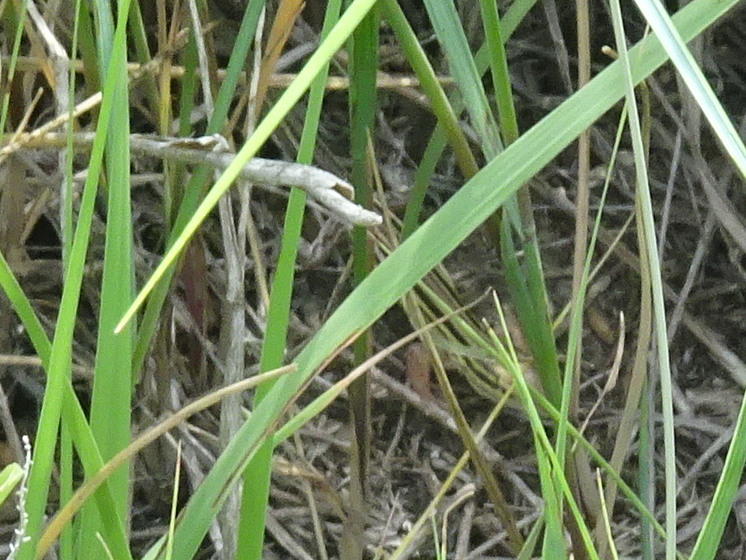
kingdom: Animalia
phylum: Chordata
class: Squamata
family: Teiidae
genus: Aspidoscelis
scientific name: Aspidoscelis sexlineatus
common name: Six-lined racerunner
